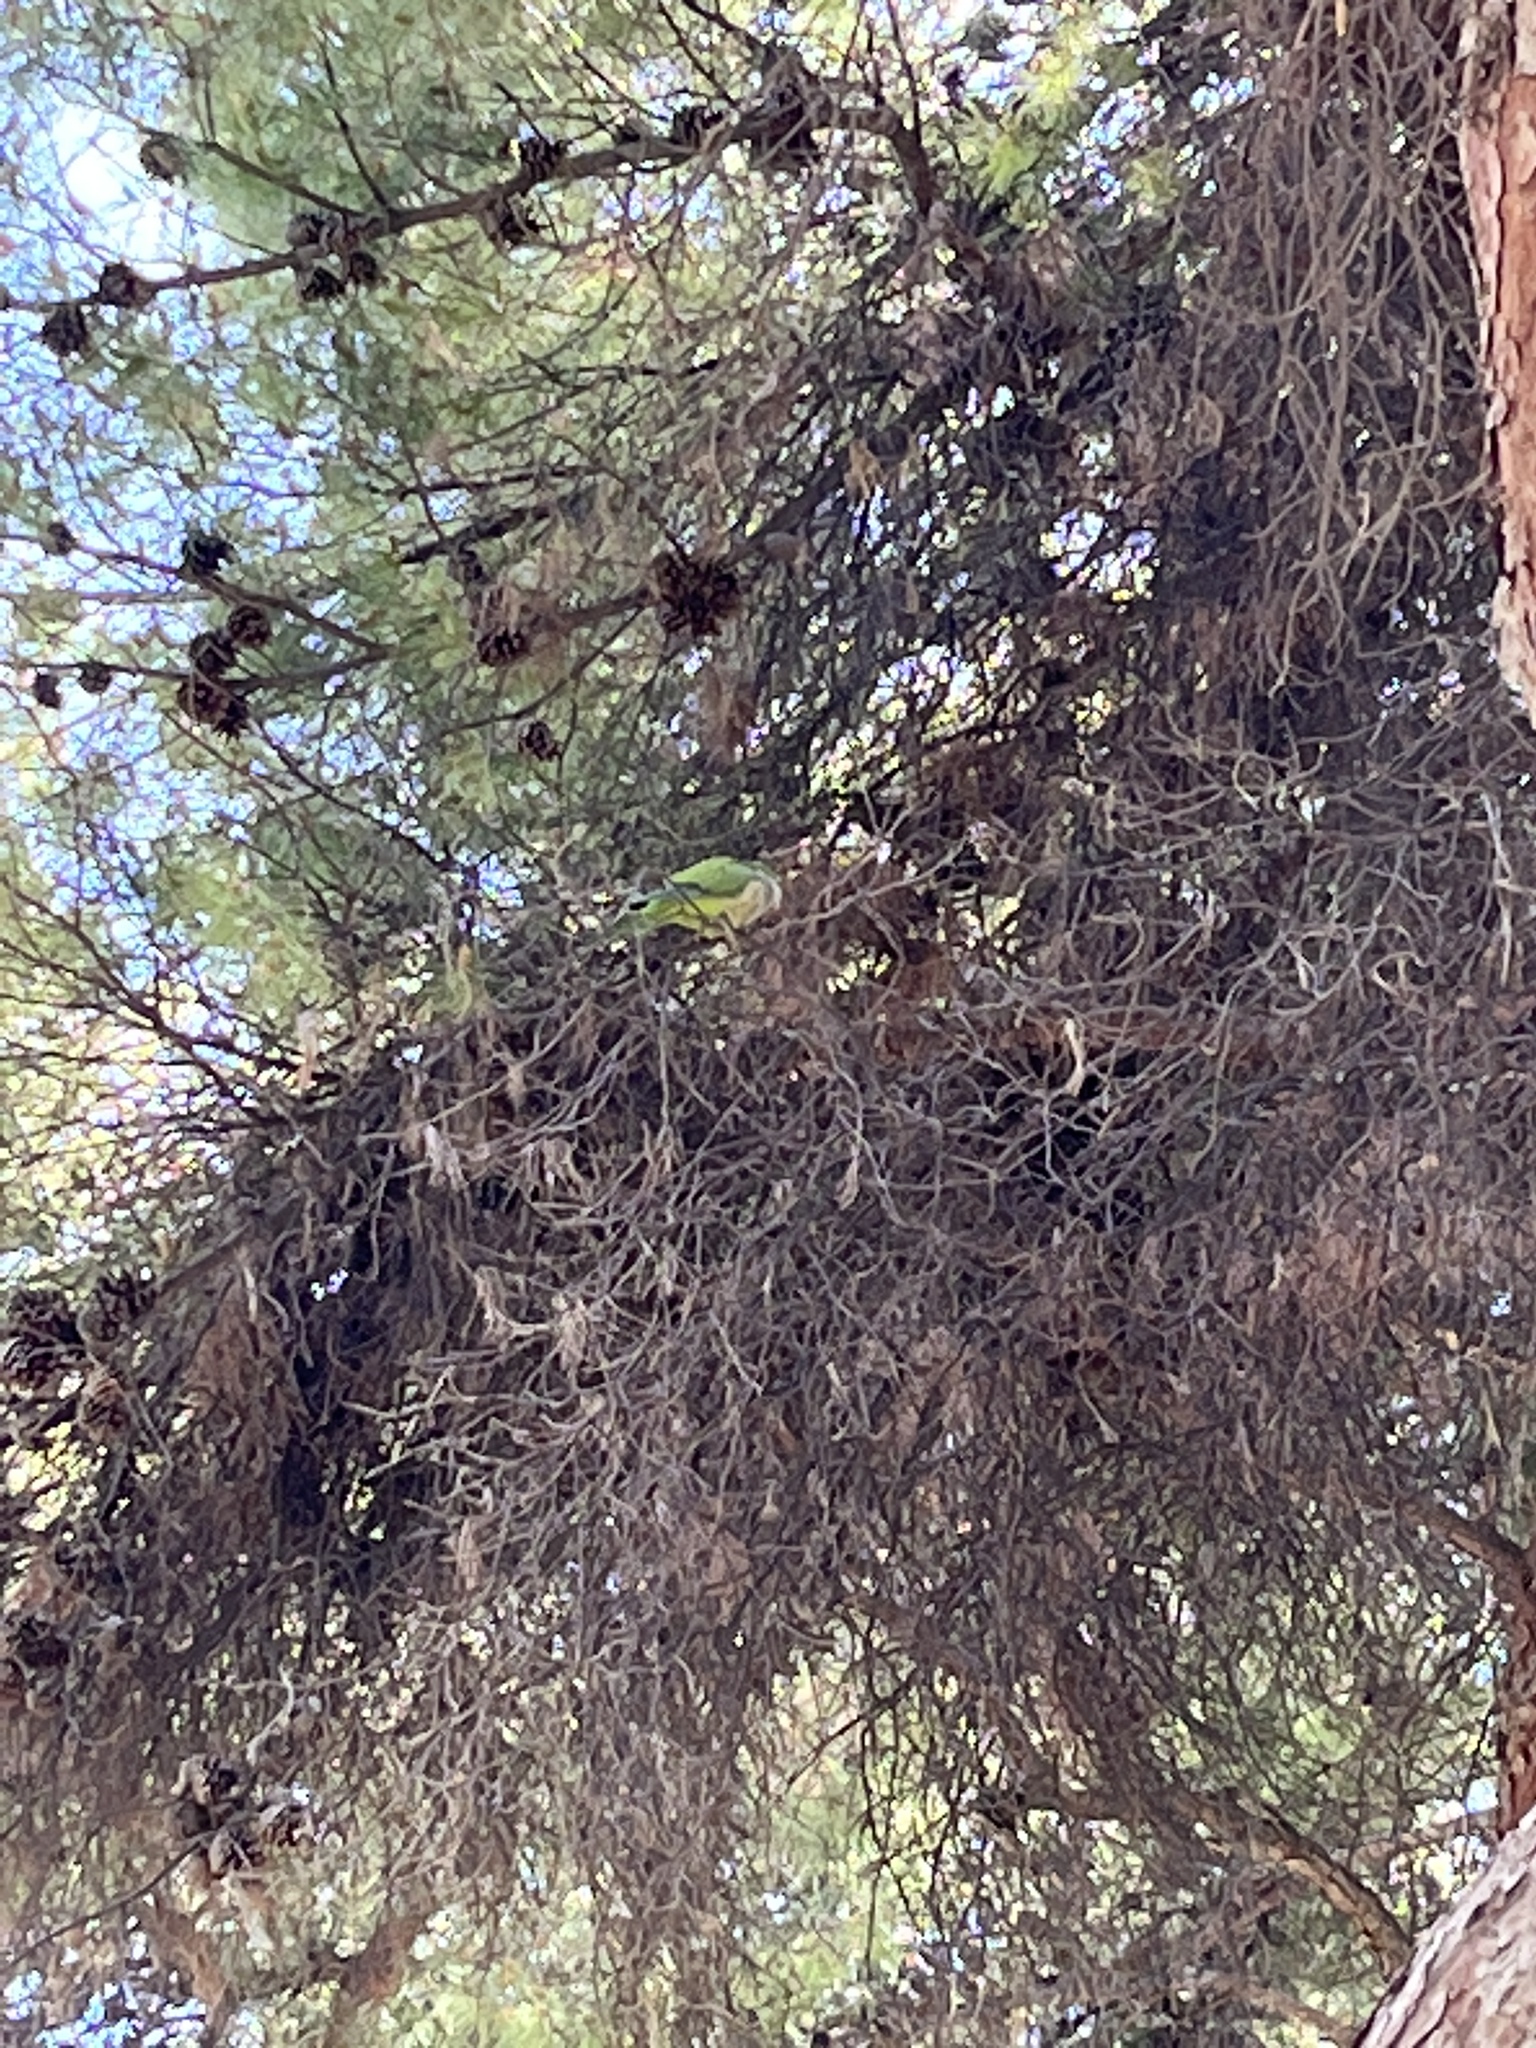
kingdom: Animalia
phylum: Chordata
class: Aves
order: Psittaciformes
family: Psittacidae
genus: Myiopsitta
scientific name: Myiopsitta monachus
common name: Monk parakeet
